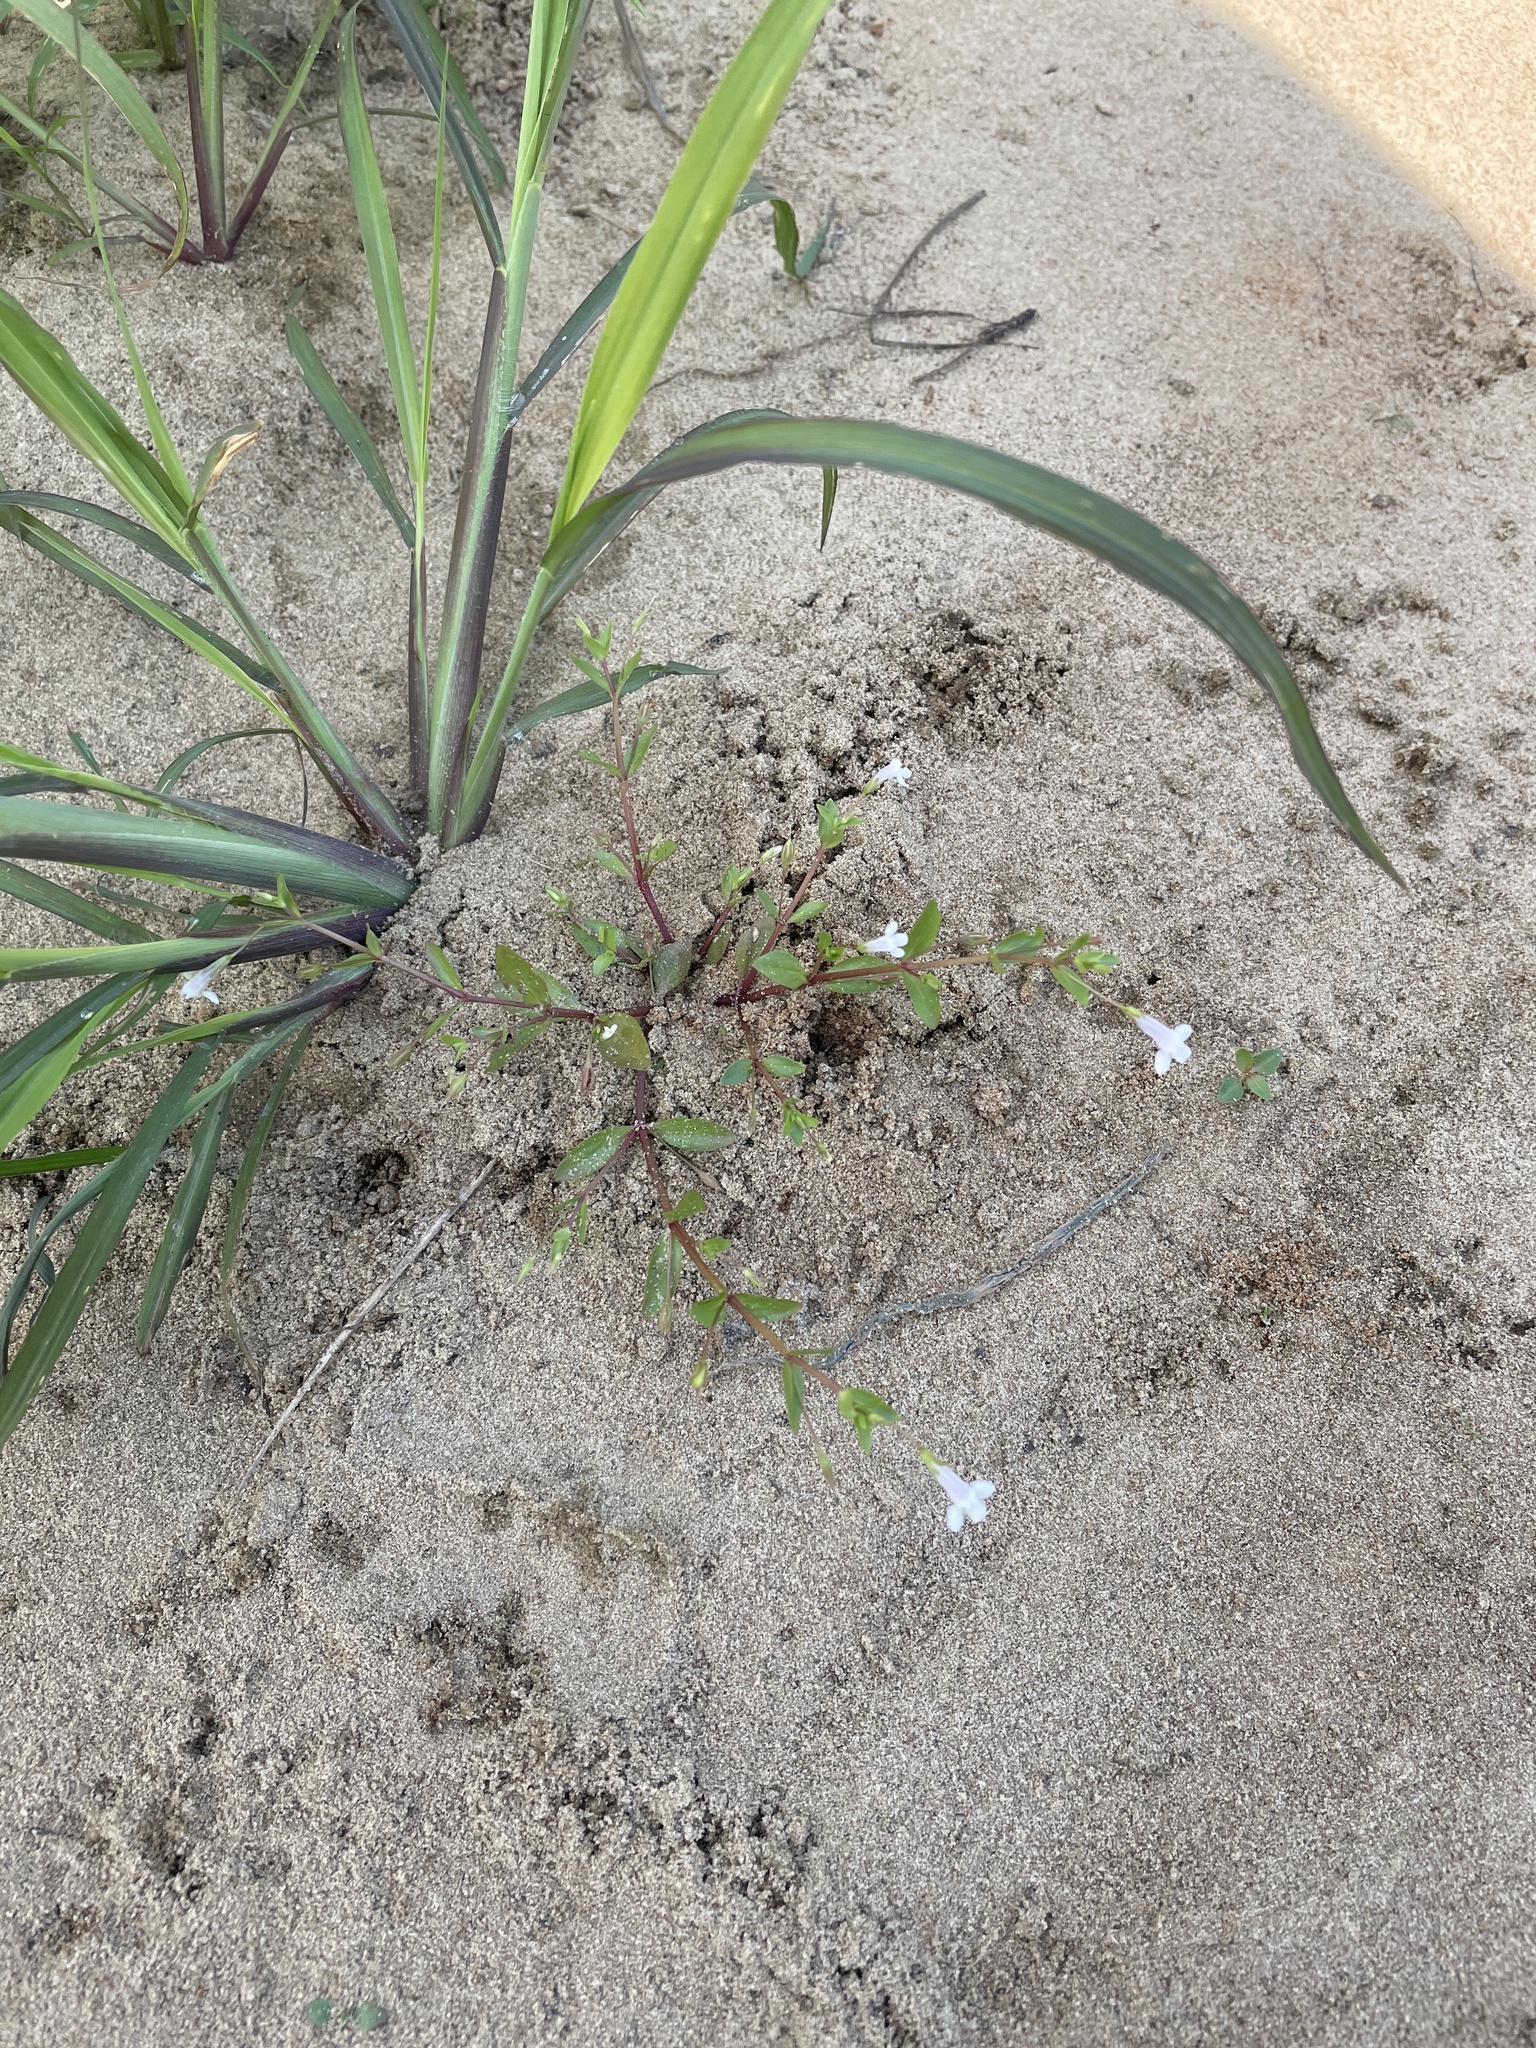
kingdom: Plantae
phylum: Tracheophyta
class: Magnoliopsida
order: Lamiales
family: Linderniaceae
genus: Lindernia
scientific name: Lindernia dubia
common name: Annual false pimpernel
